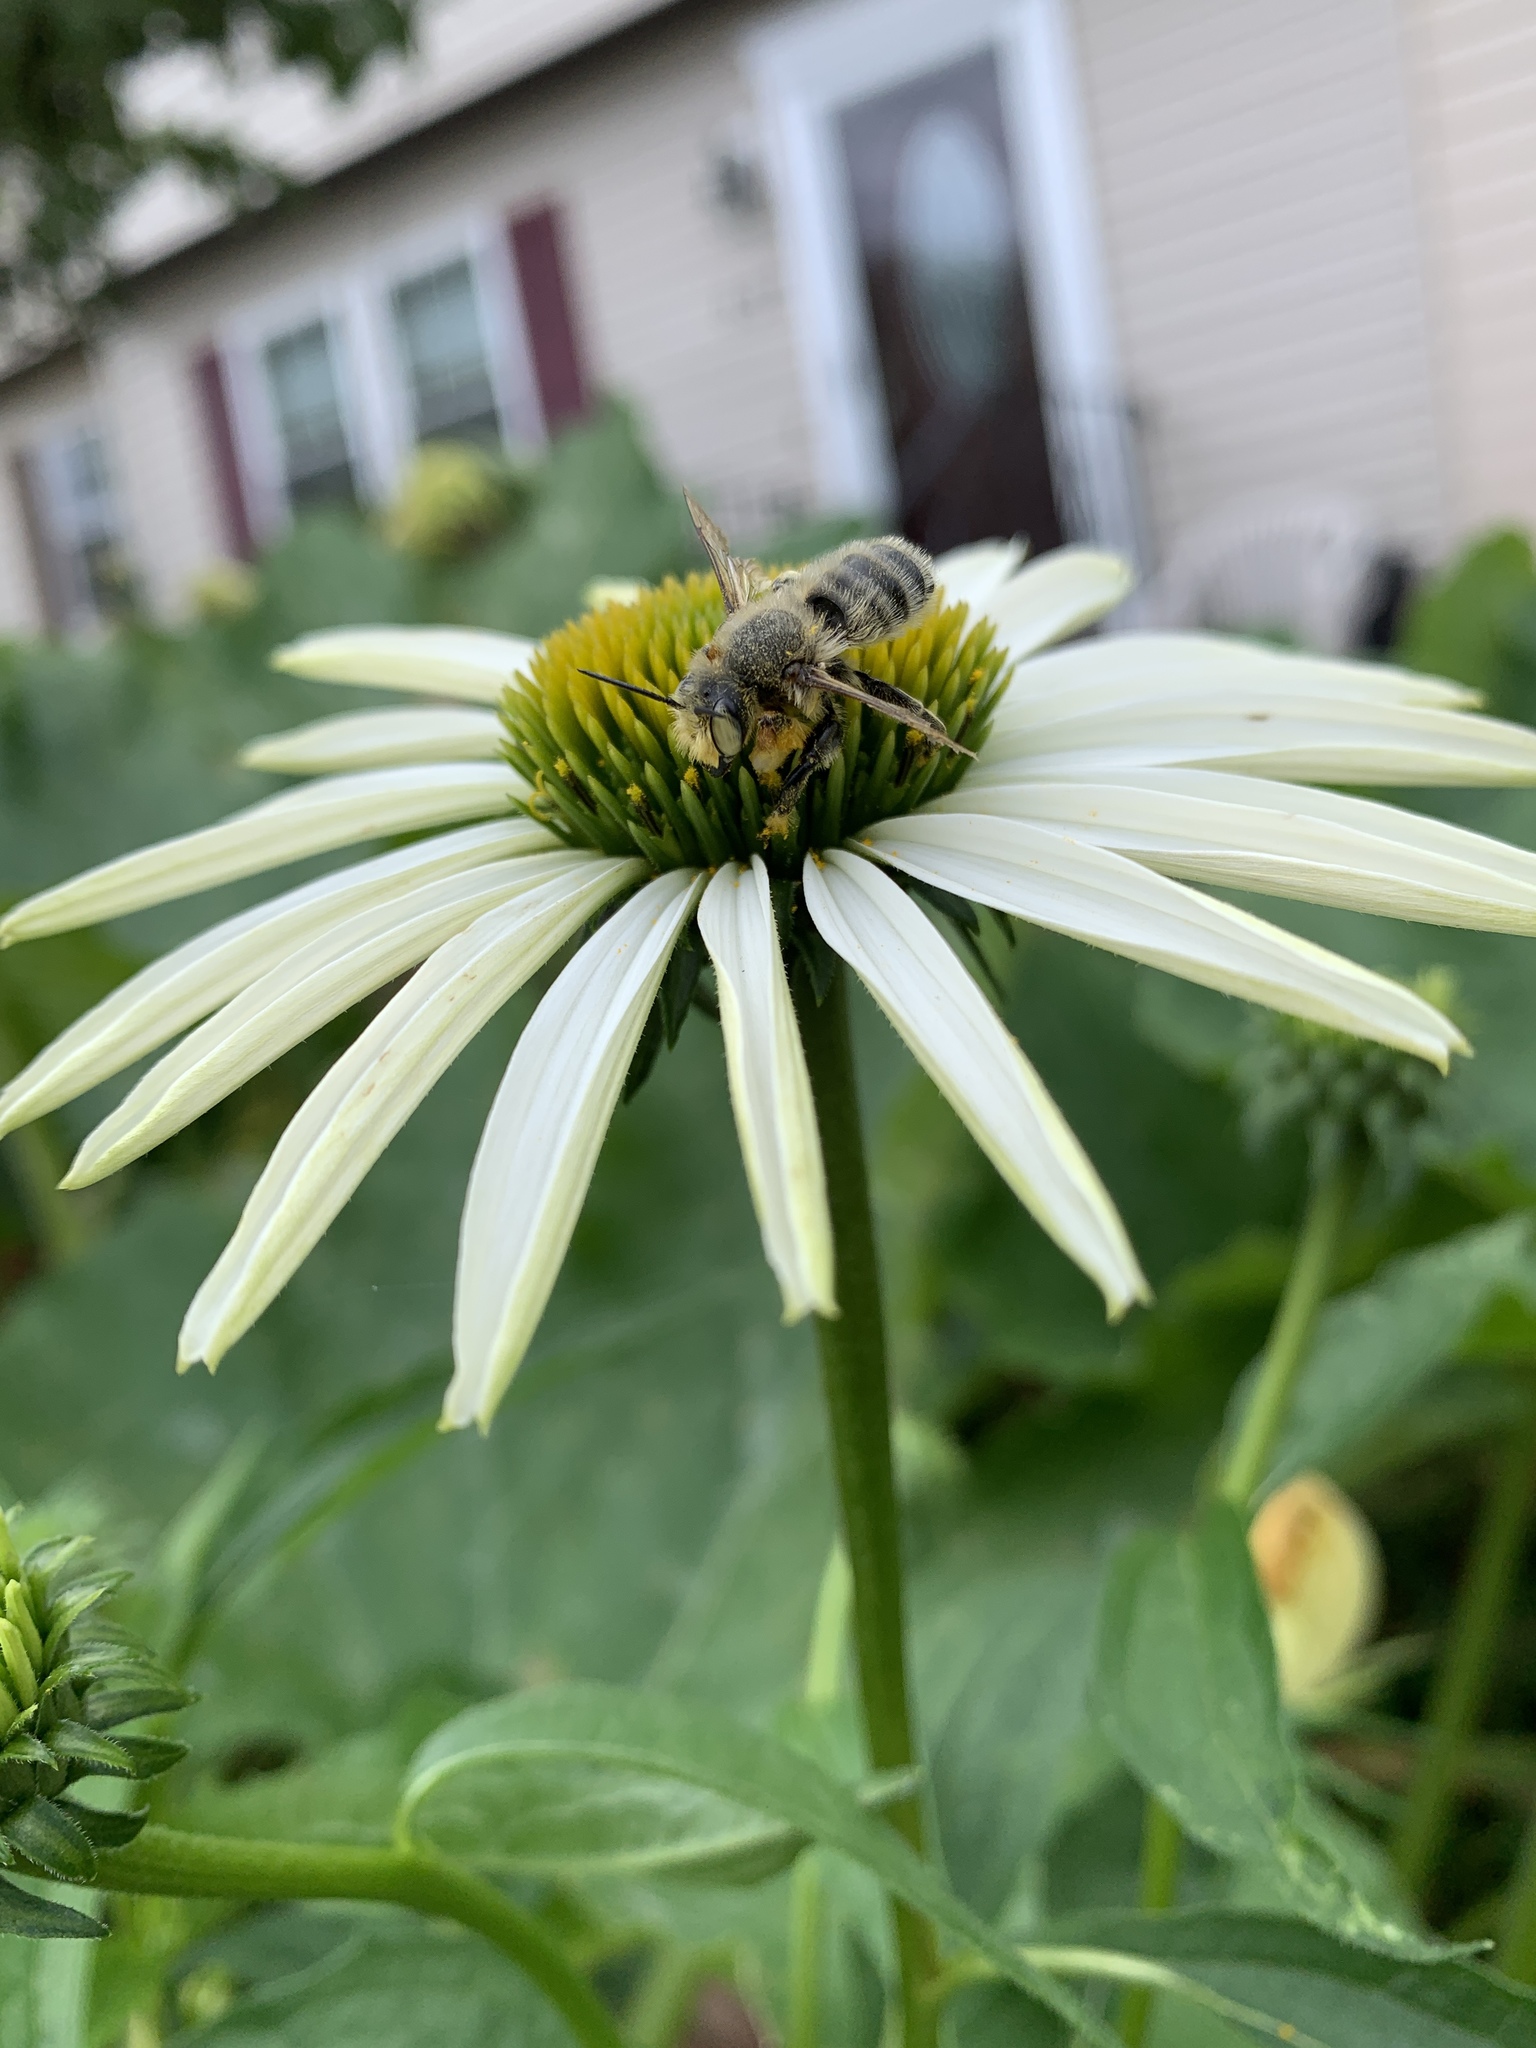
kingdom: Animalia
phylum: Arthropoda
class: Insecta
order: Hymenoptera
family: Megachilidae
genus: Megachile
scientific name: Megachile latimanus
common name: Leafcutting bee
